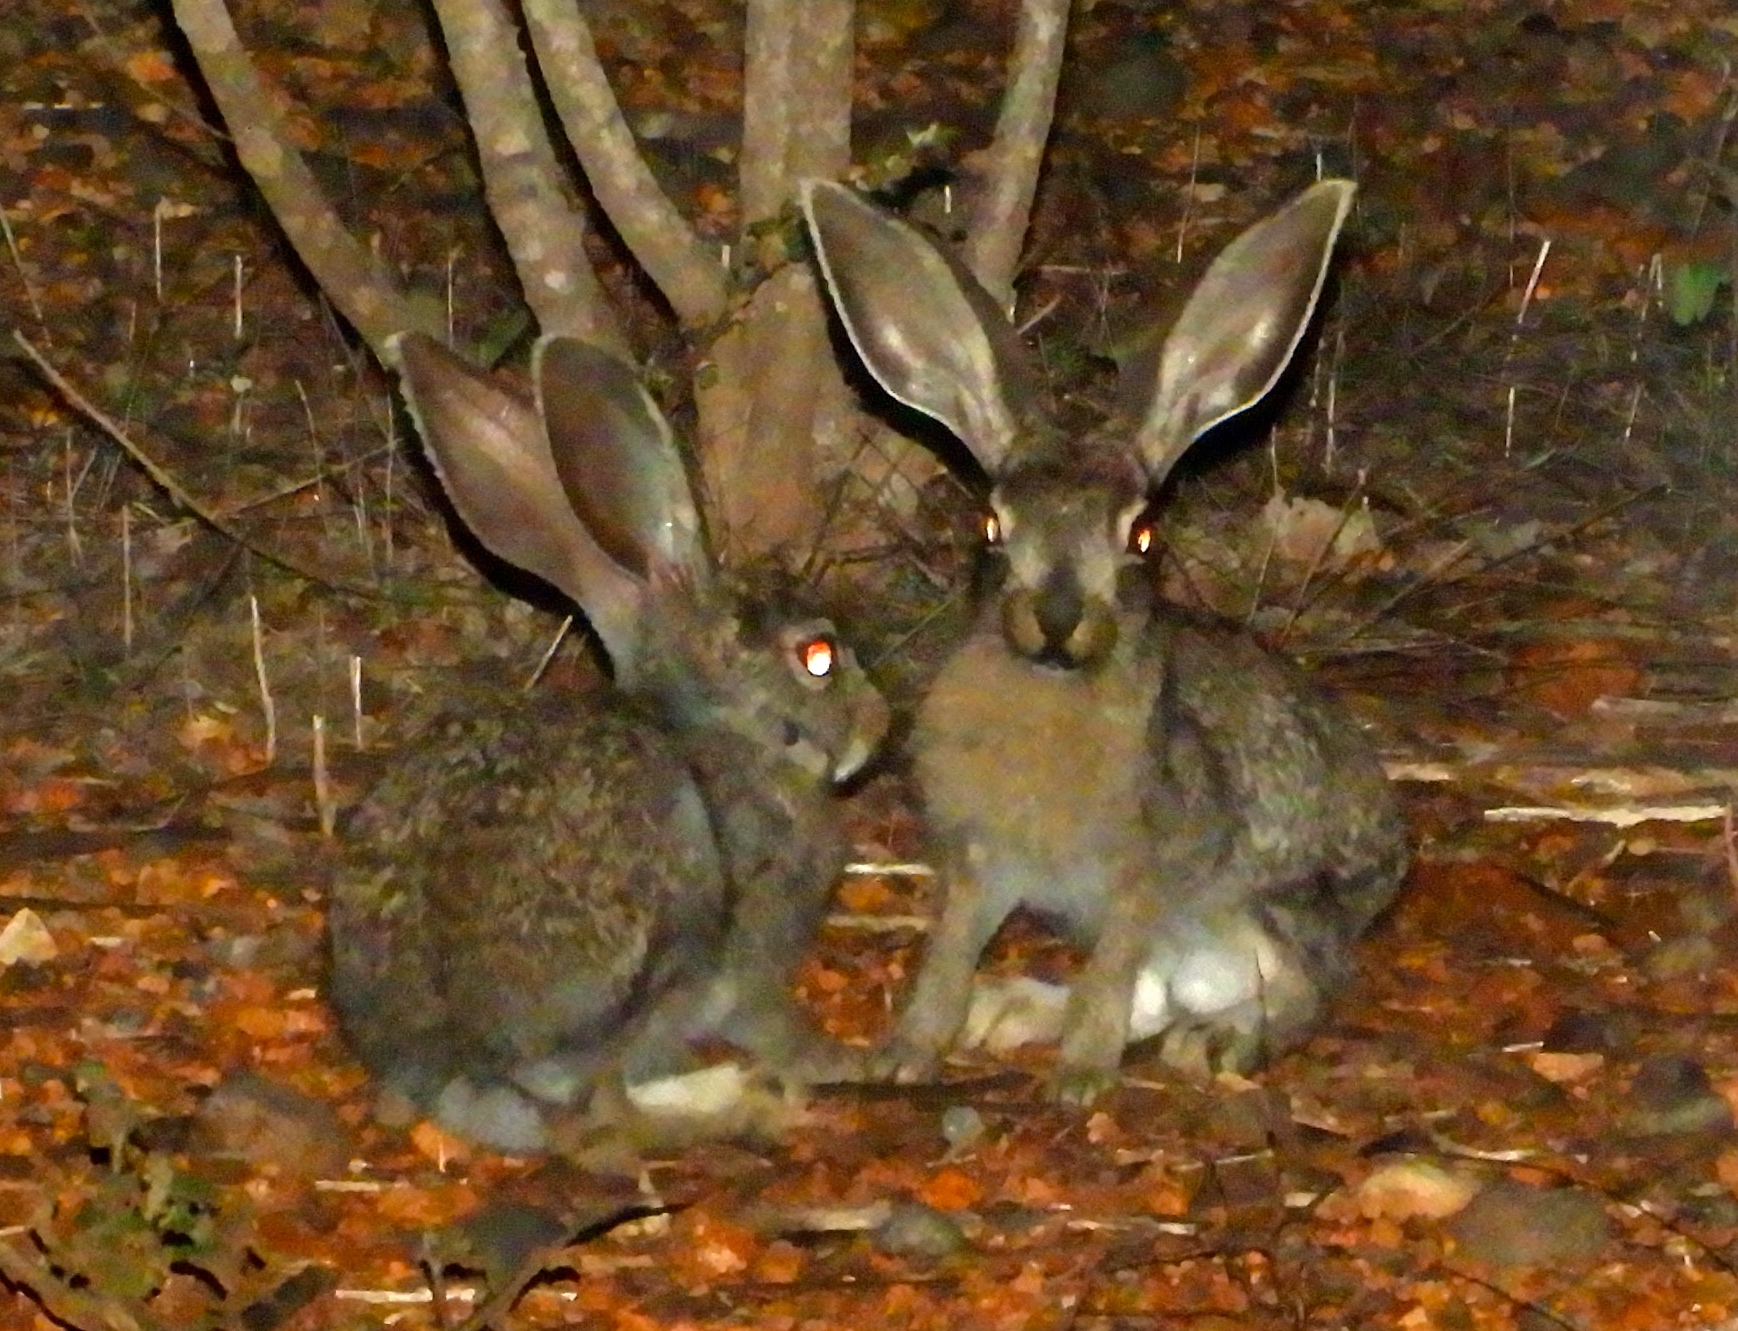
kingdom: Animalia
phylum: Chordata
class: Mammalia
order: Lagomorpha
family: Leporidae
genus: Lepus
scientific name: Lepus alleni
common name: Antelope jackrabbit
